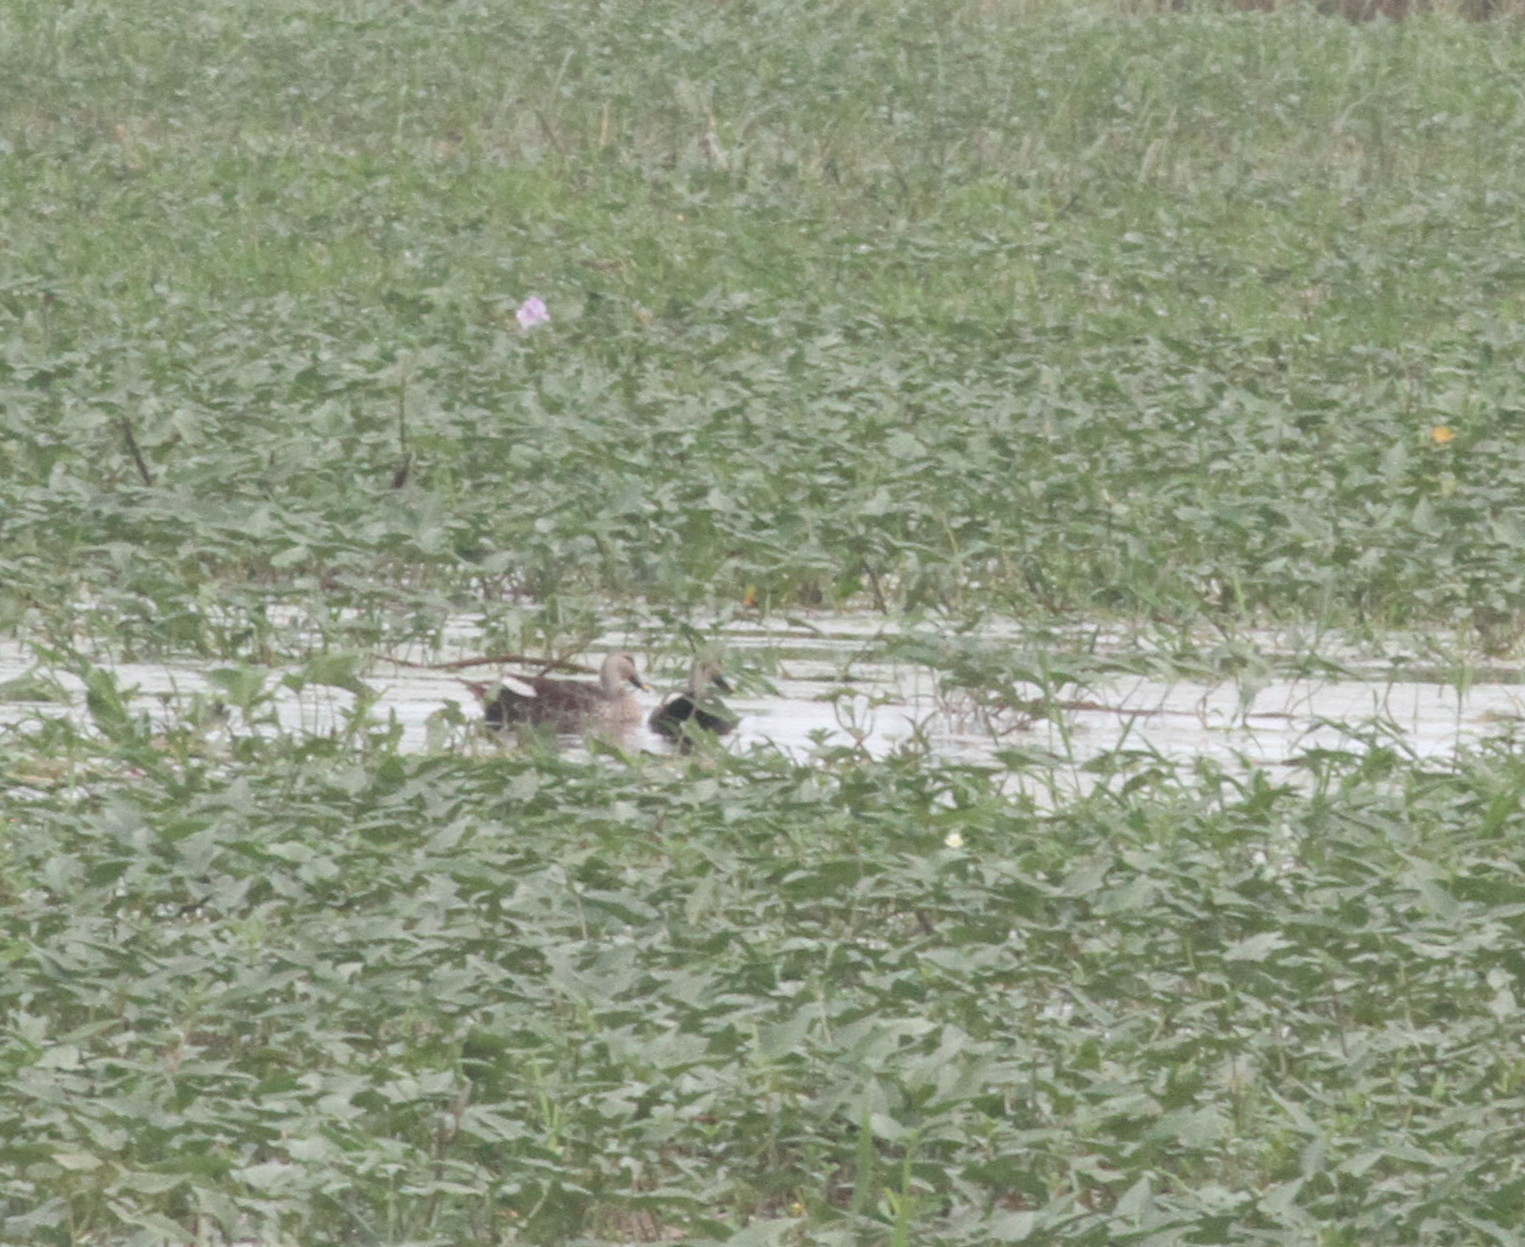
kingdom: Animalia
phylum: Chordata
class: Aves
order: Anseriformes
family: Anatidae
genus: Anas
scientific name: Anas poecilorhyncha
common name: Indian spot-billed duck
